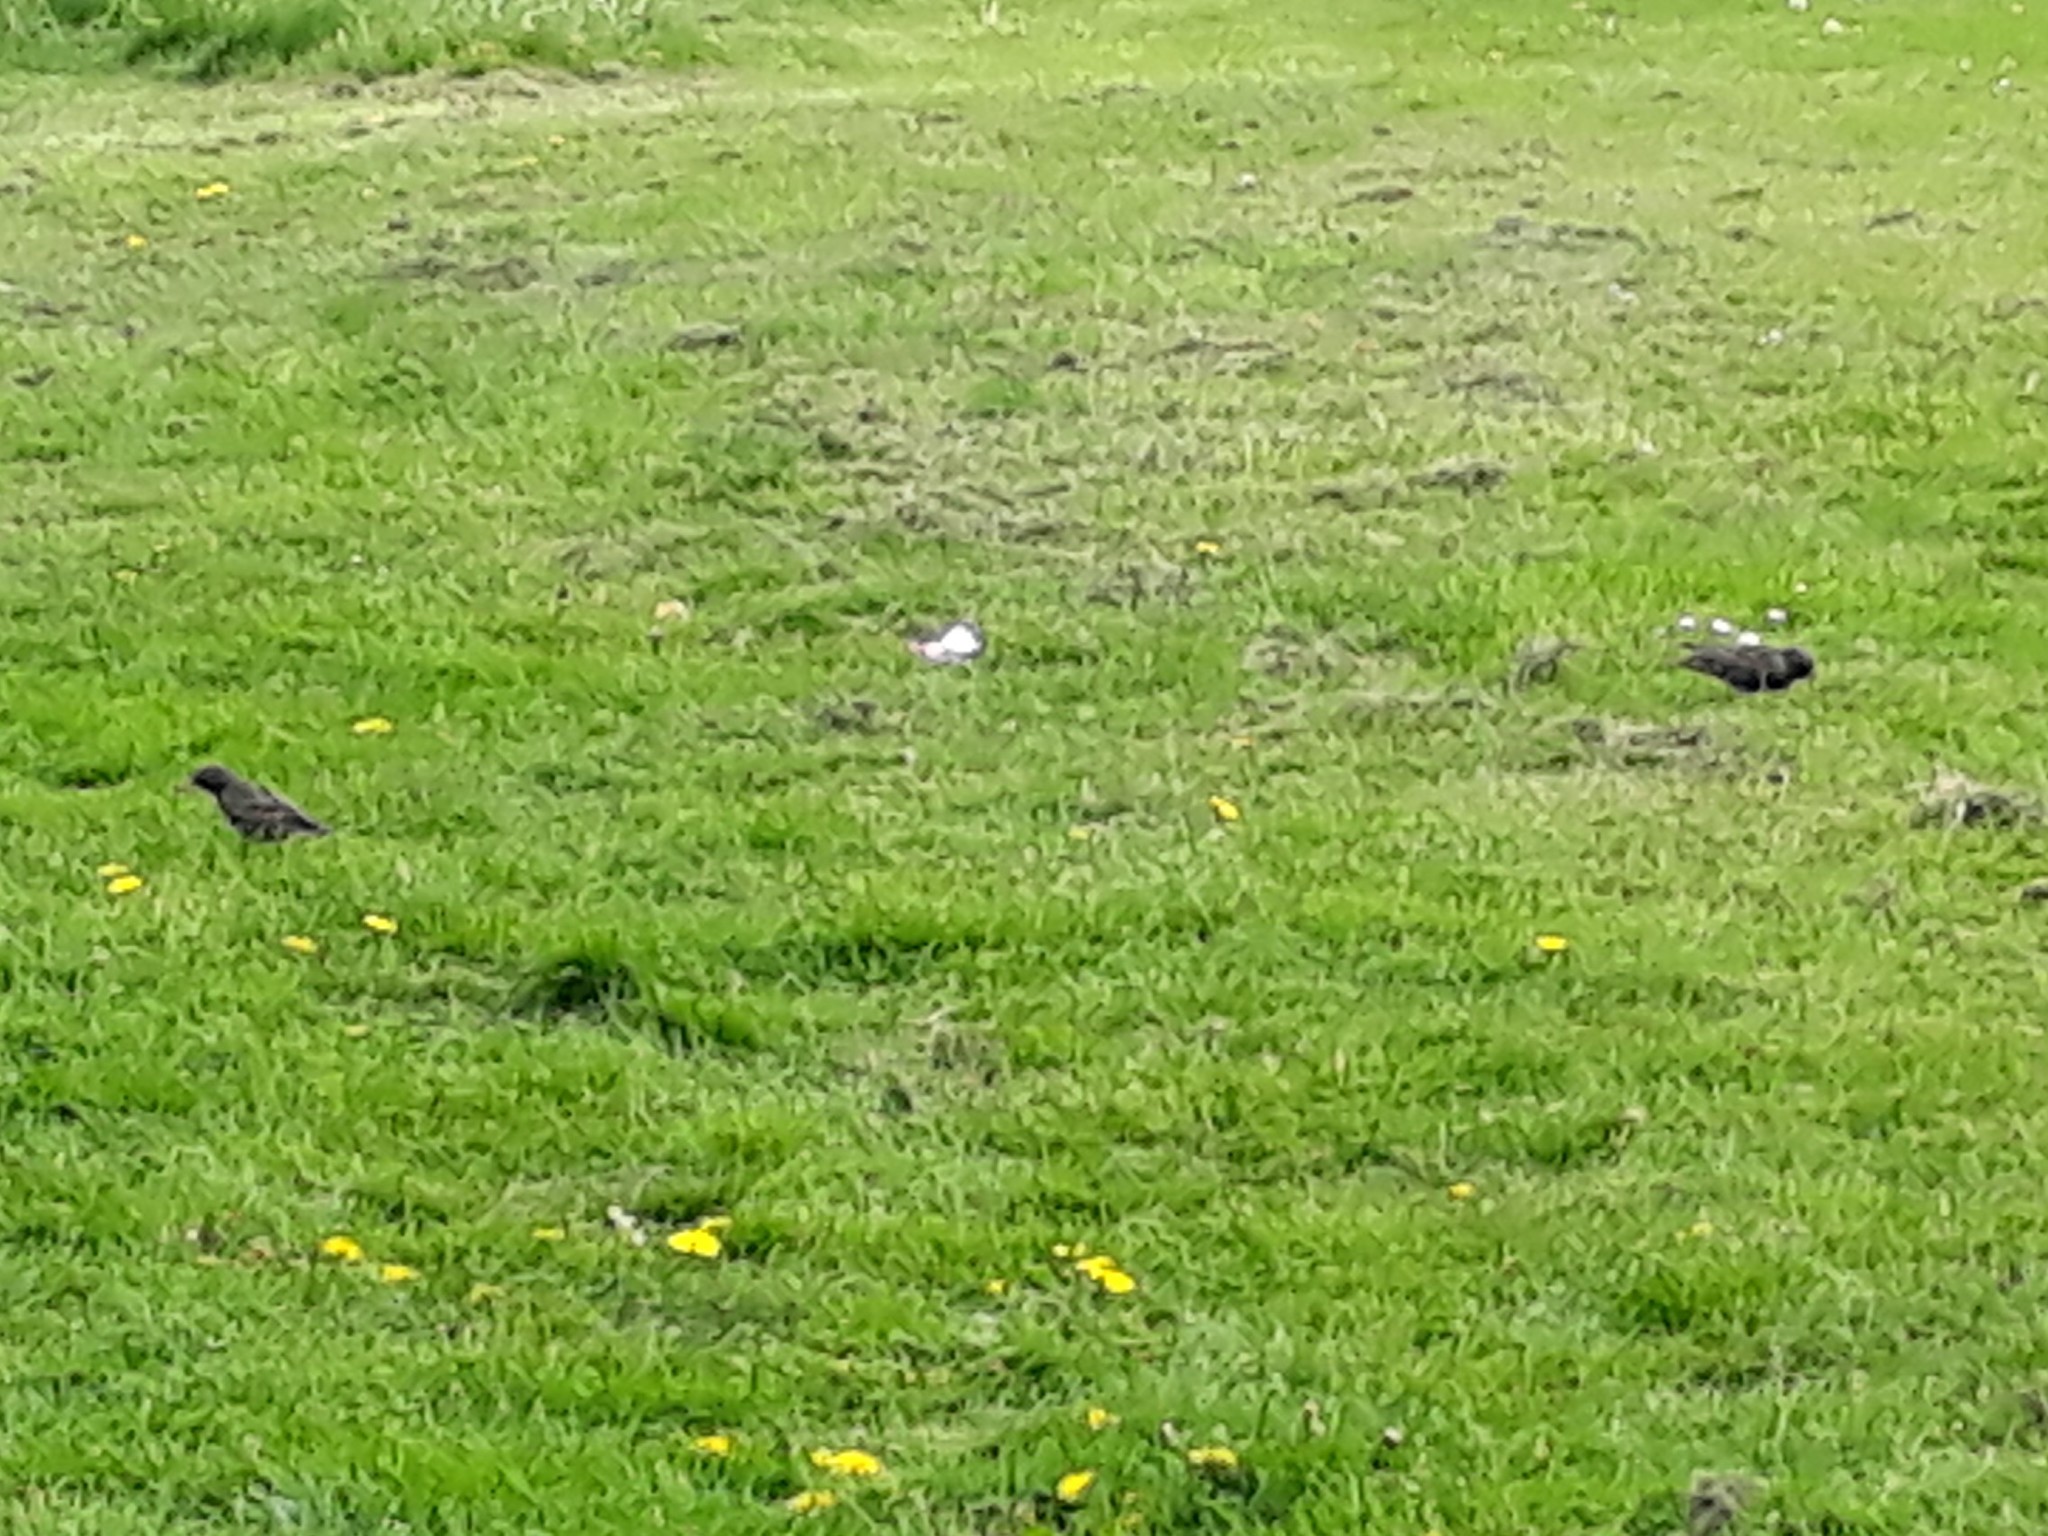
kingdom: Animalia
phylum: Chordata
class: Aves
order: Passeriformes
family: Sturnidae
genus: Sturnus
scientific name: Sturnus vulgaris
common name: Common starling
